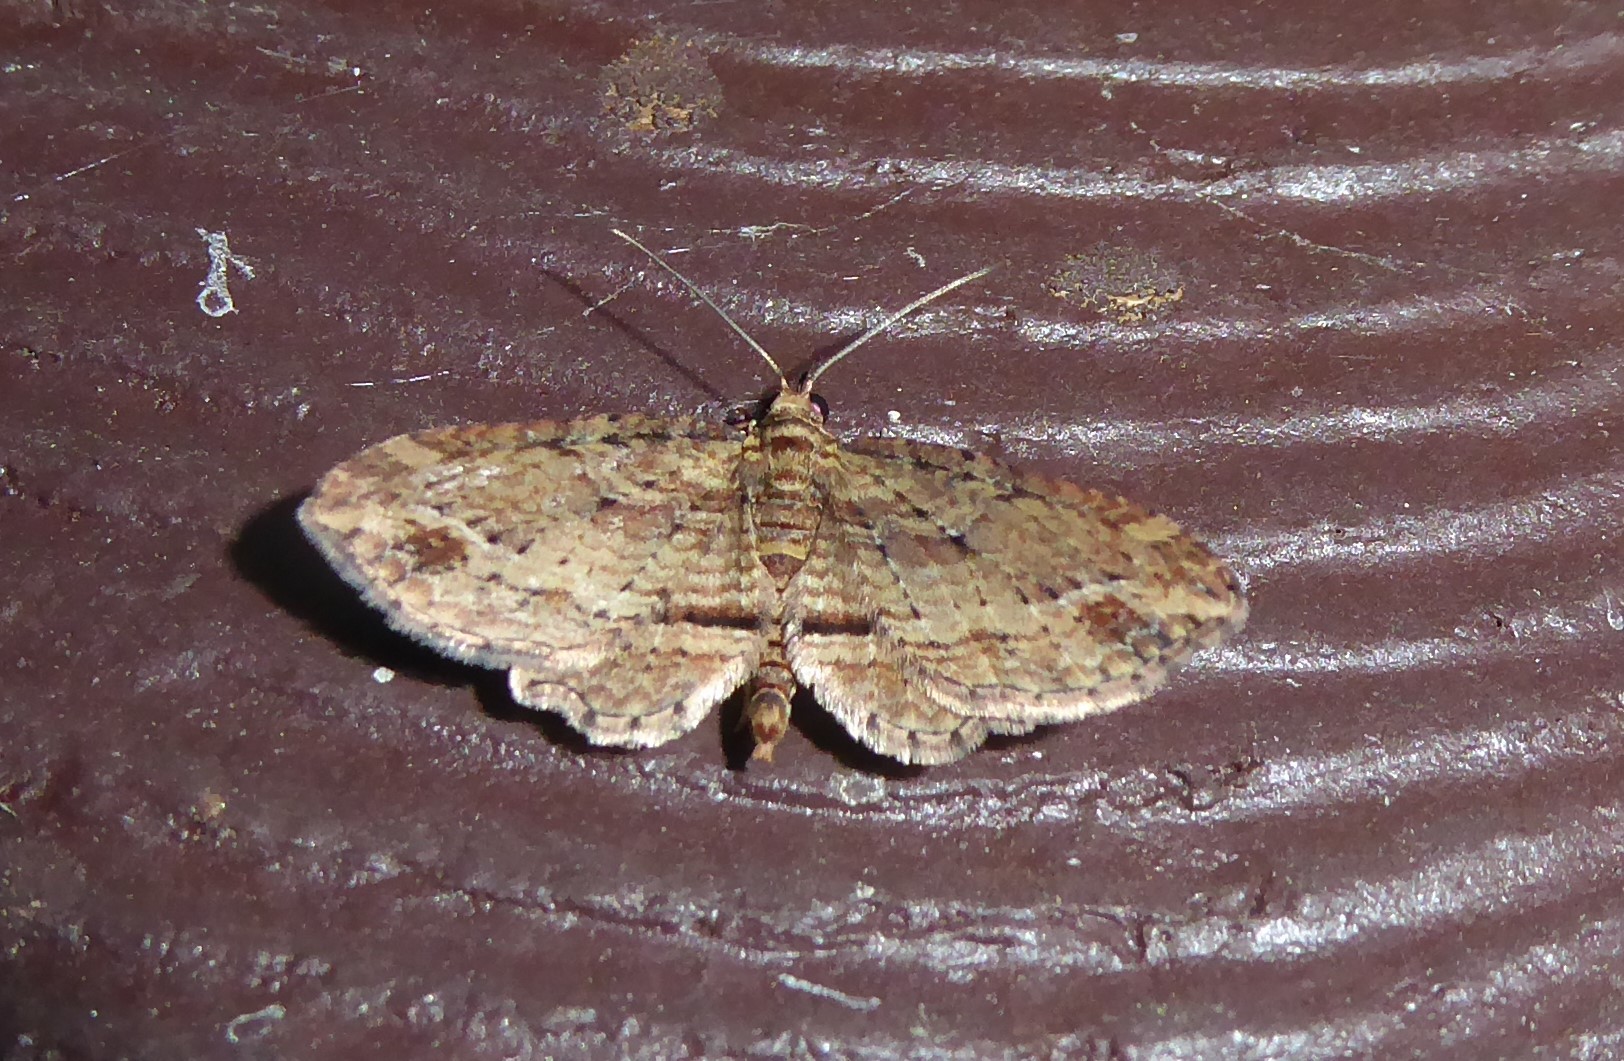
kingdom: Animalia
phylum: Arthropoda
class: Insecta
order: Lepidoptera
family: Geometridae
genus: Chloroclystis
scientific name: Chloroclystis filata
